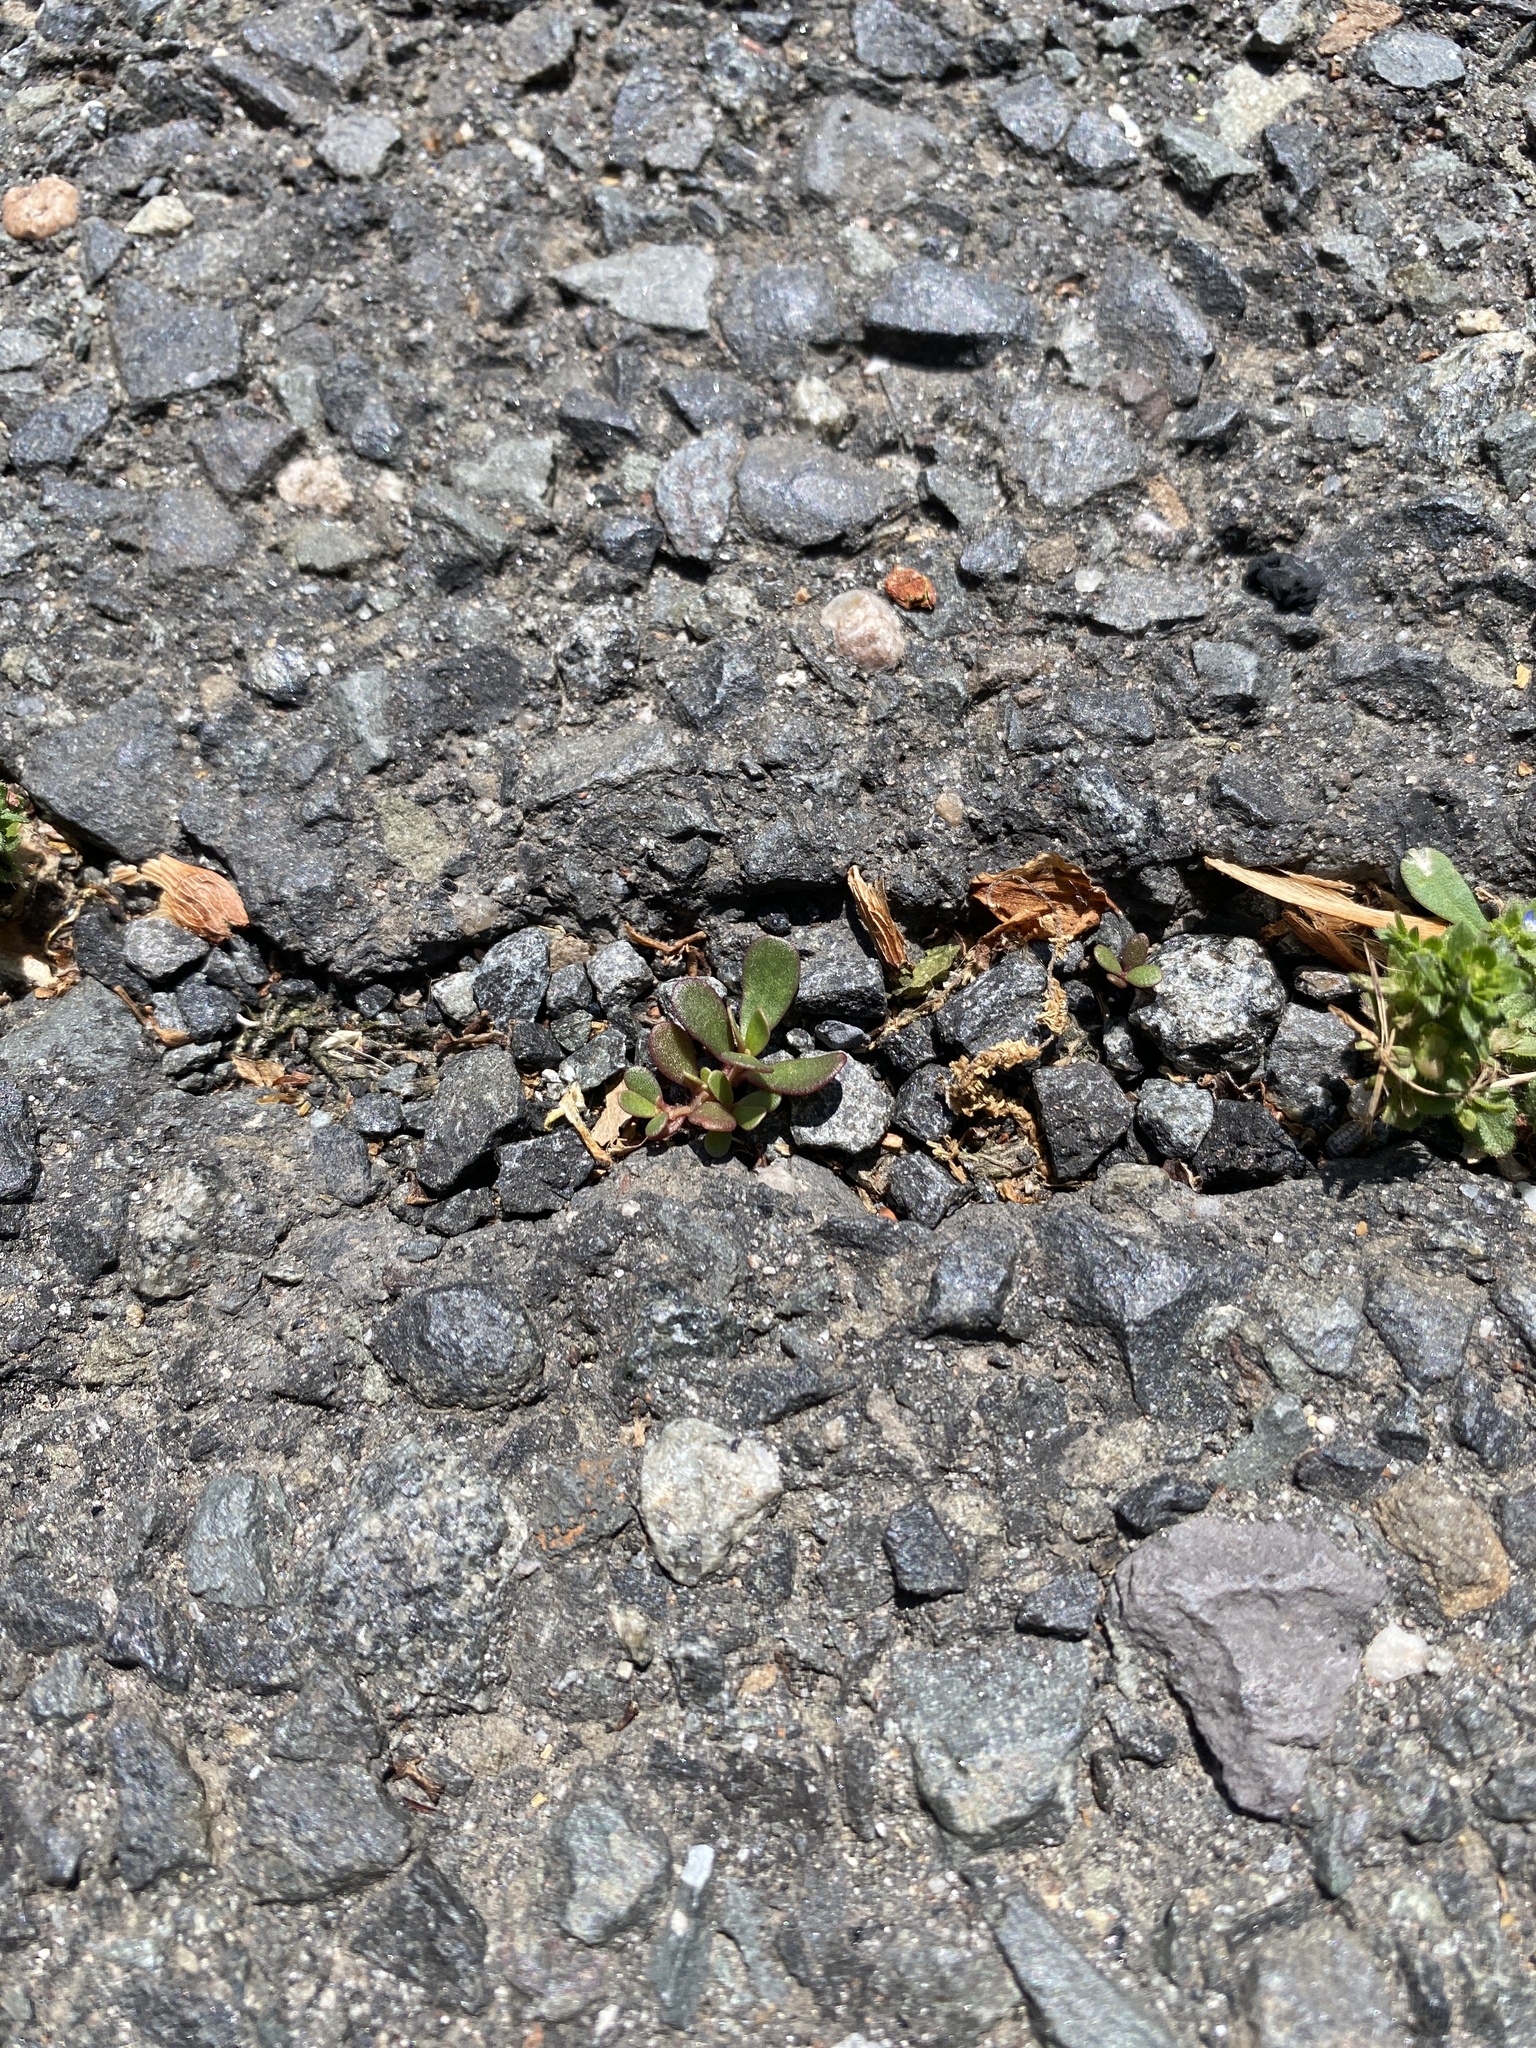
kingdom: Plantae
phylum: Tracheophyta
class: Magnoliopsida
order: Caryophyllales
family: Portulacaceae
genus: Portulaca
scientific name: Portulaca oleracea
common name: Common purslane
